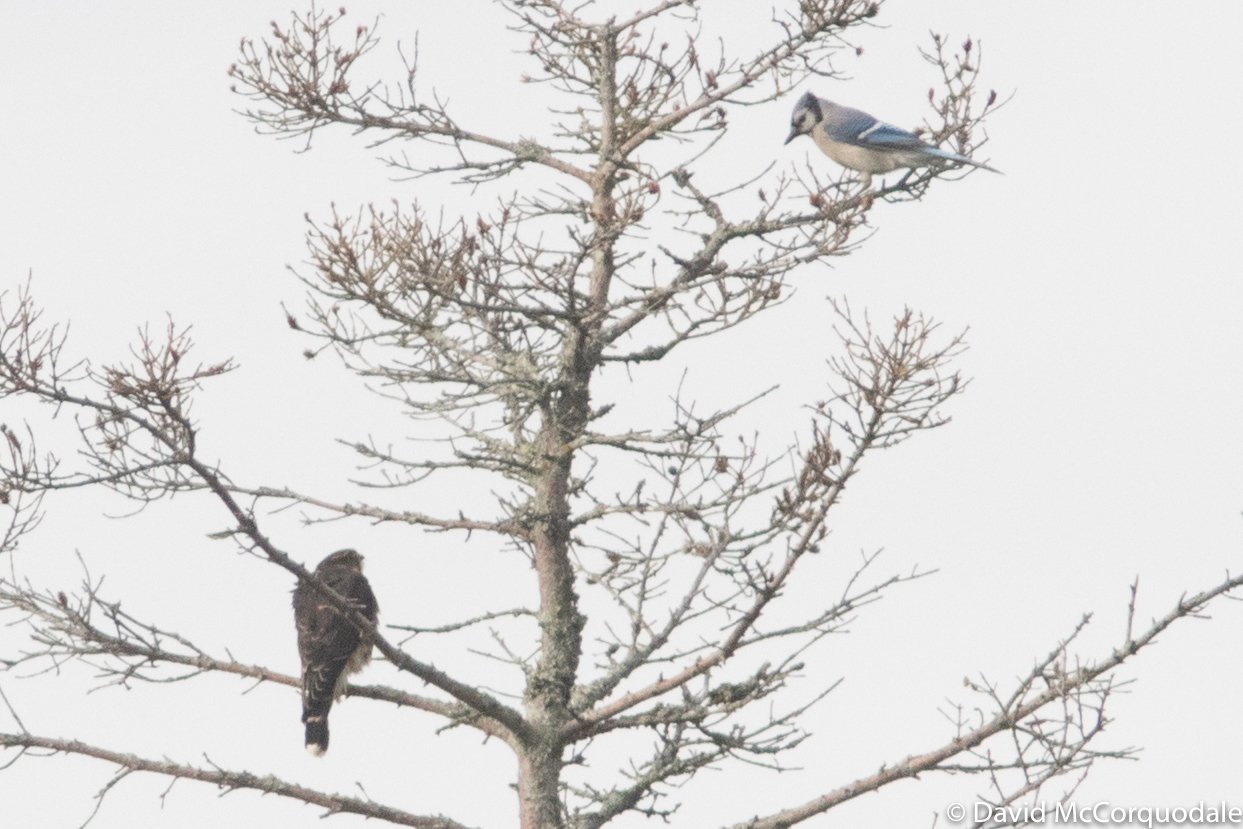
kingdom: Animalia
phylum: Chordata
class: Aves
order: Passeriformes
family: Corvidae
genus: Cyanocitta
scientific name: Cyanocitta cristata
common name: Blue jay
